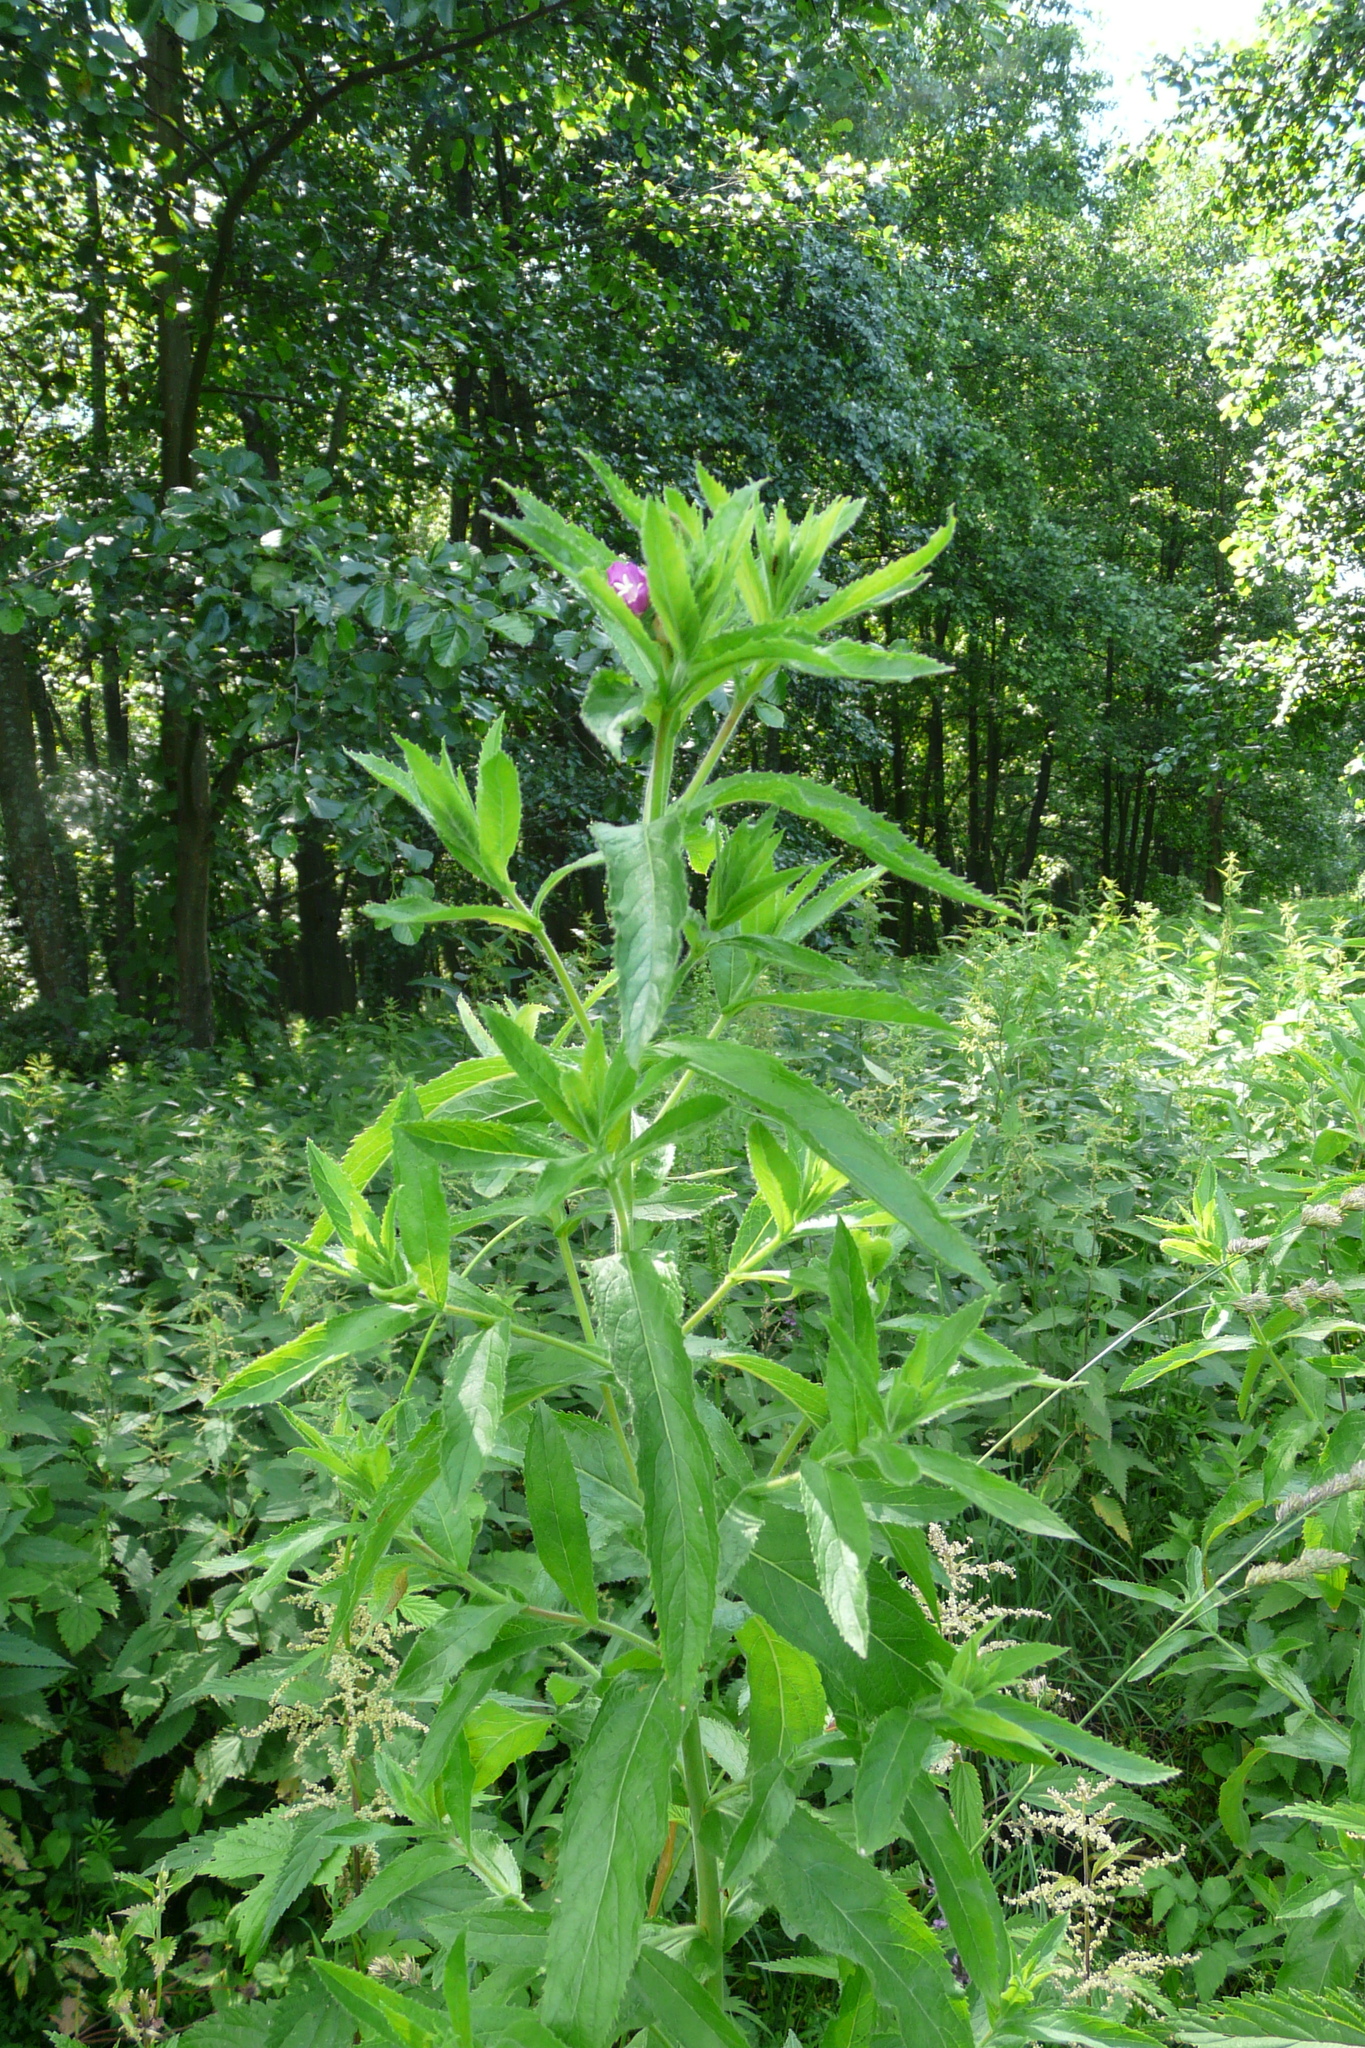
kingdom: Plantae
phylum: Tracheophyta
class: Magnoliopsida
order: Myrtales
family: Onagraceae
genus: Epilobium
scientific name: Epilobium hirsutum
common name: Great willowherb
